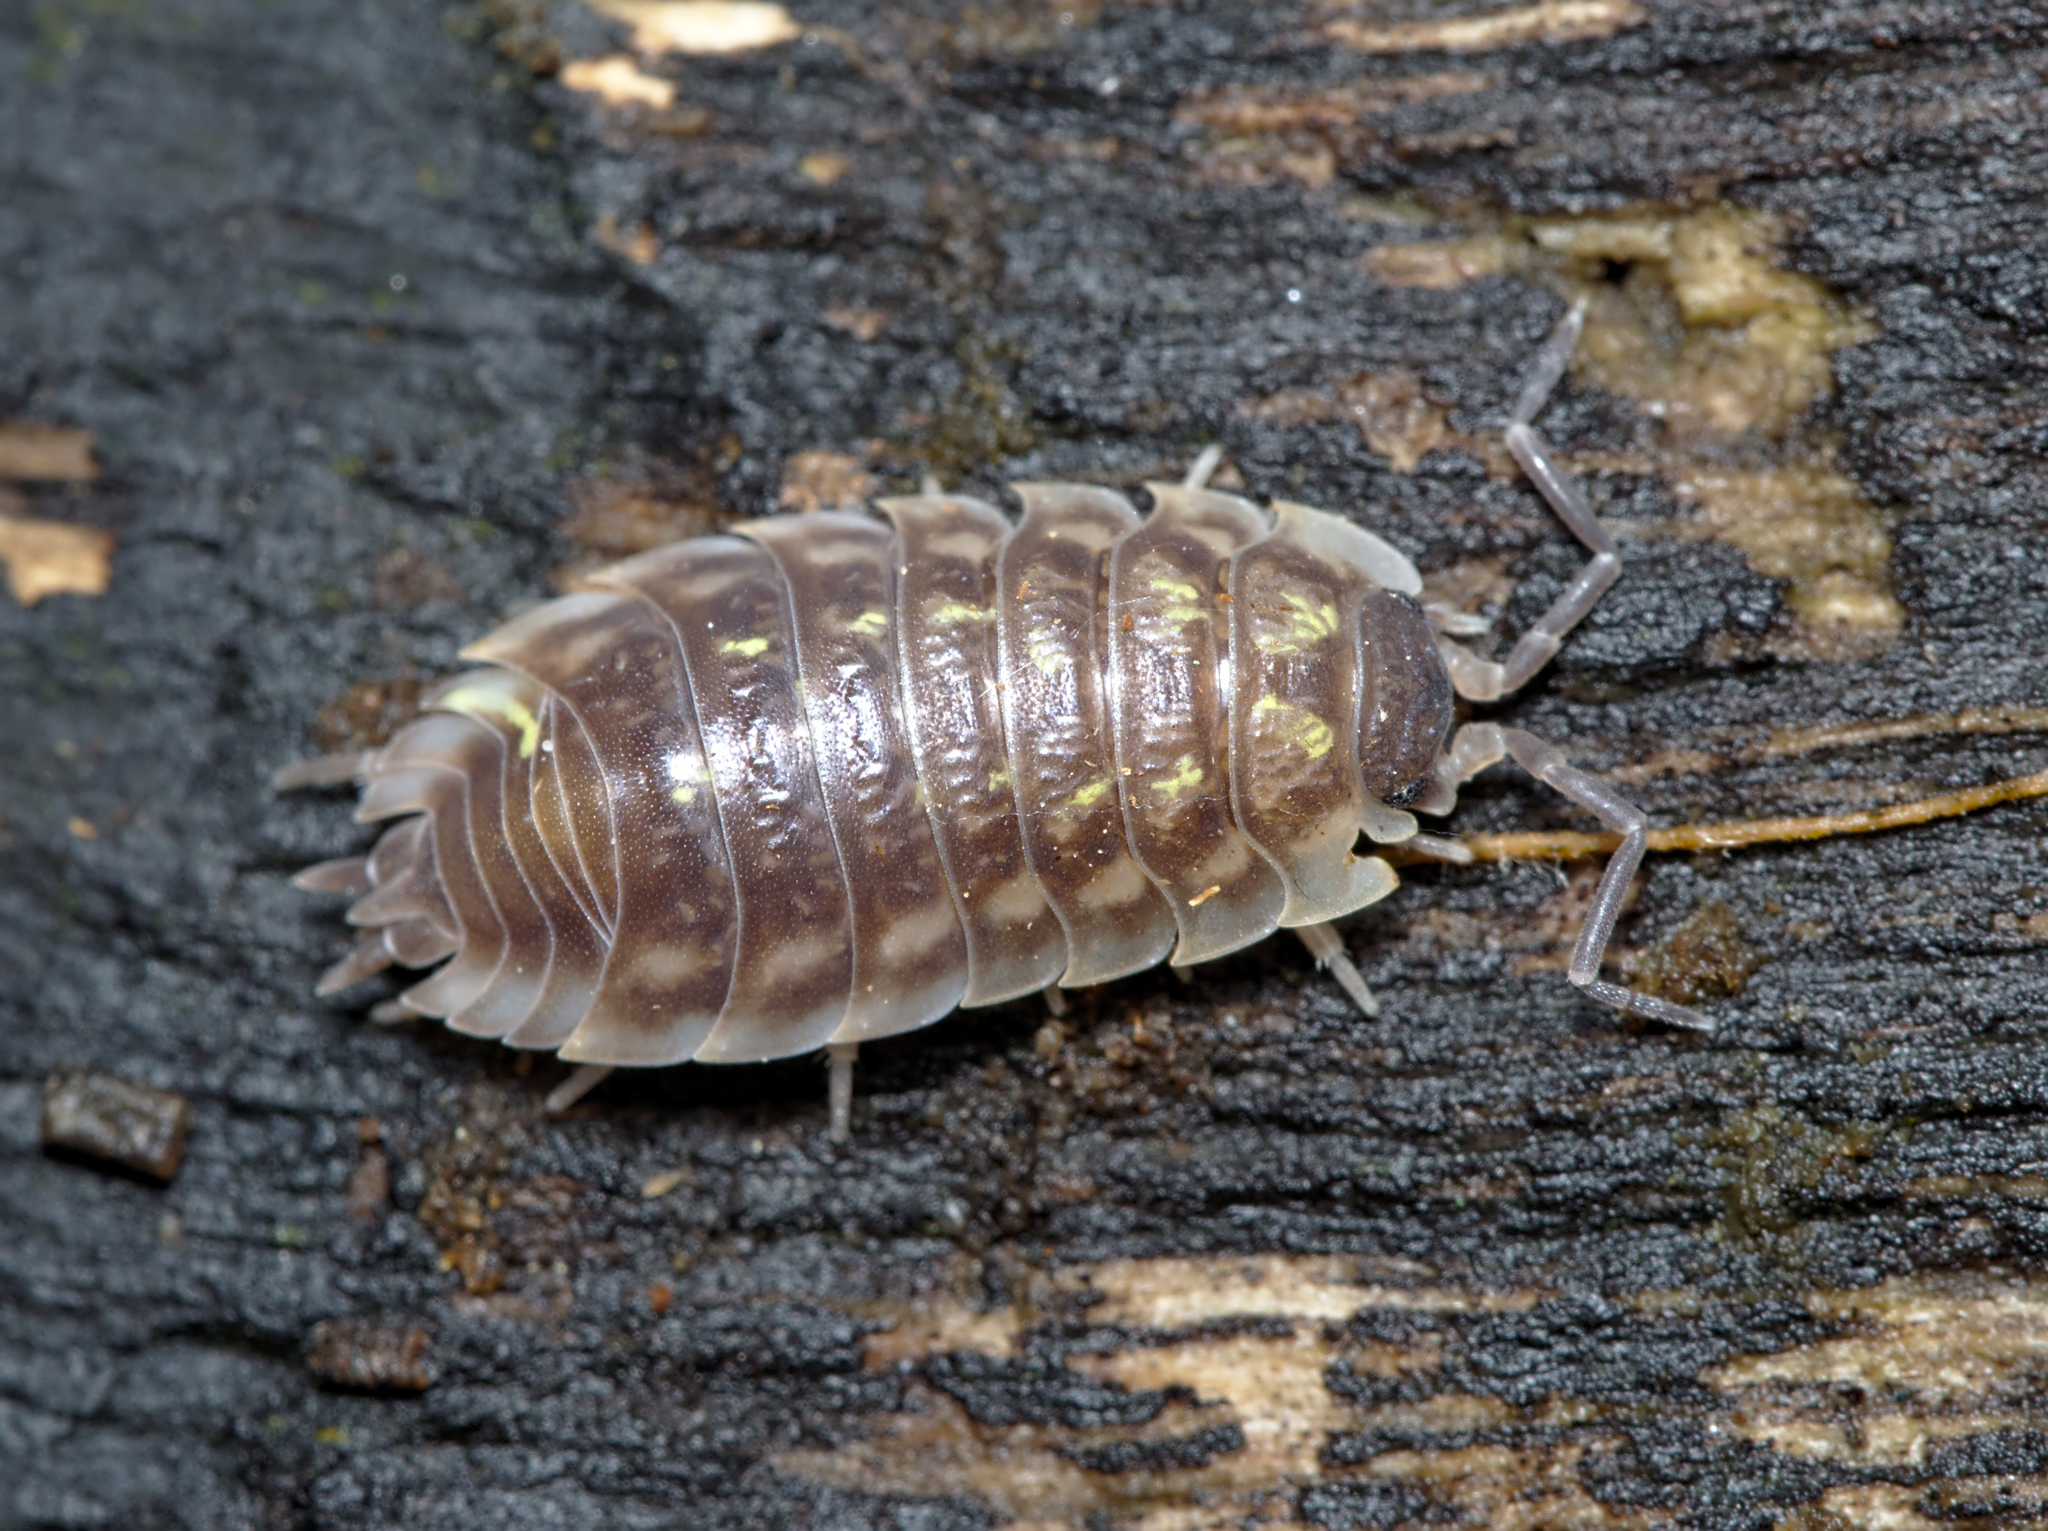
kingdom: Animalia
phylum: Arthropoda
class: Malacostraca
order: Isopoda
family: Oniscidae
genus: Oniscus
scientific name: Oniscus asellus
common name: Common shiny woodlouse
